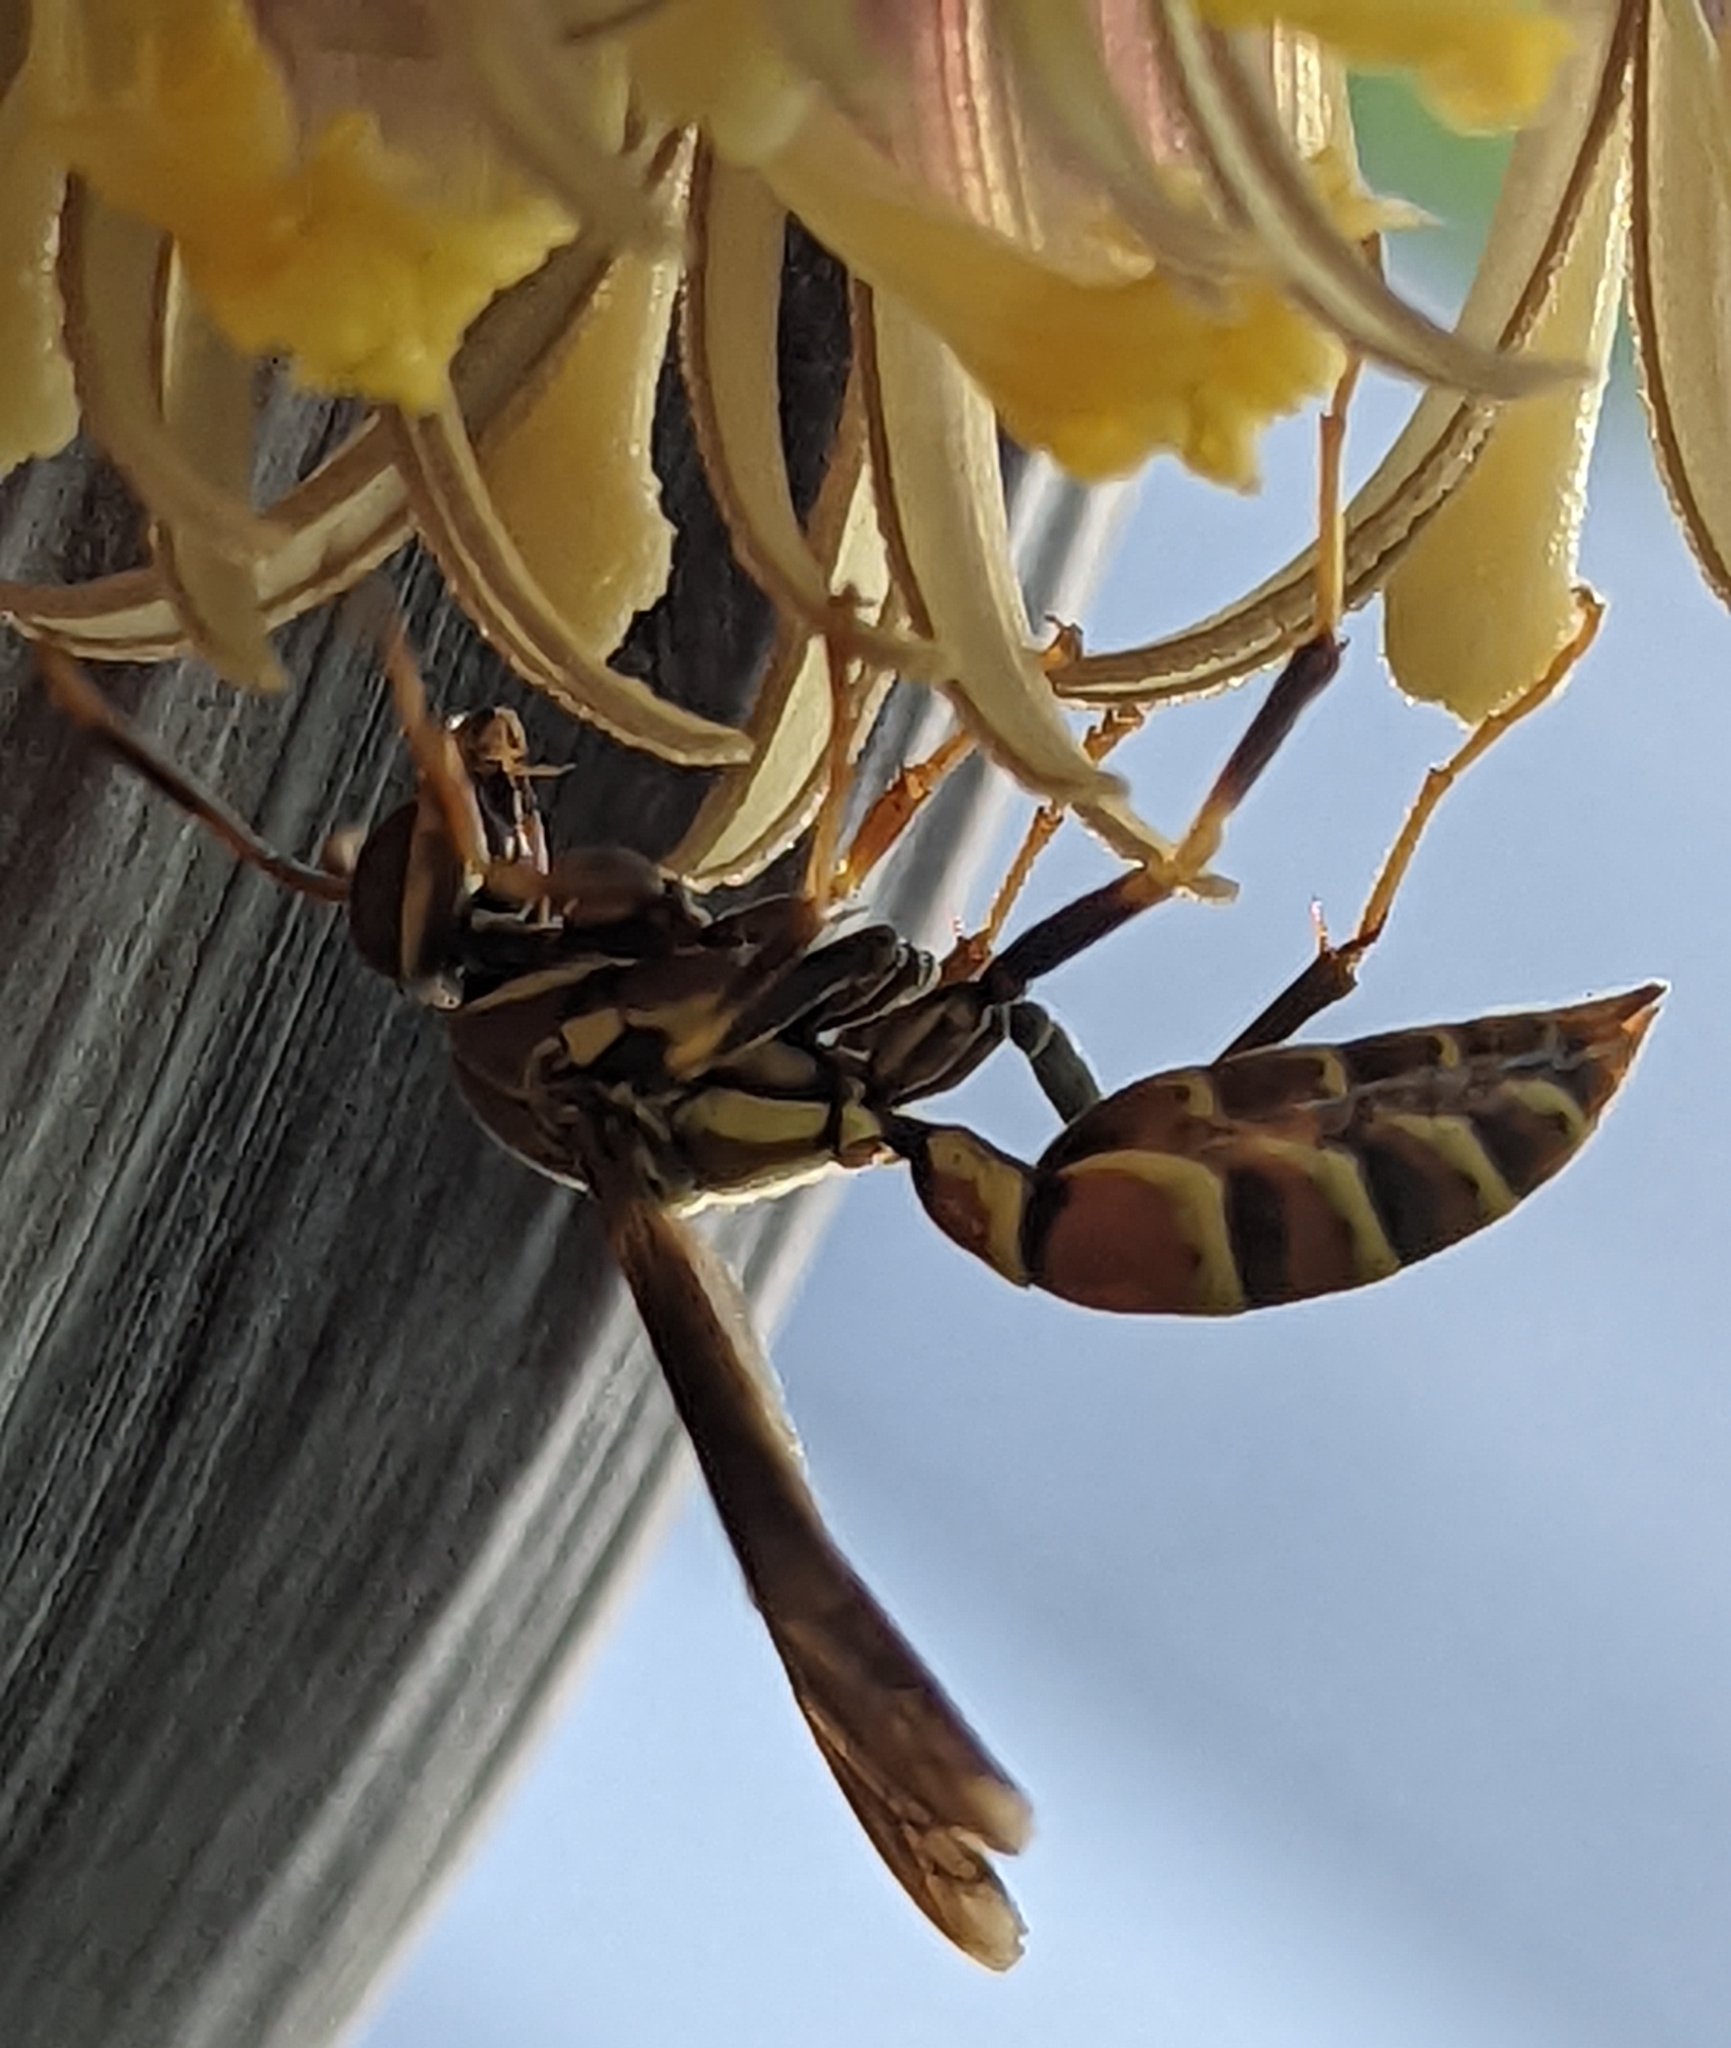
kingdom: Animalia
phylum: Arthropoda
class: Insecta
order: Hymenoptera
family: Eumenidae
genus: Polistes
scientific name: Polistes exclamans
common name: Paper wasp
